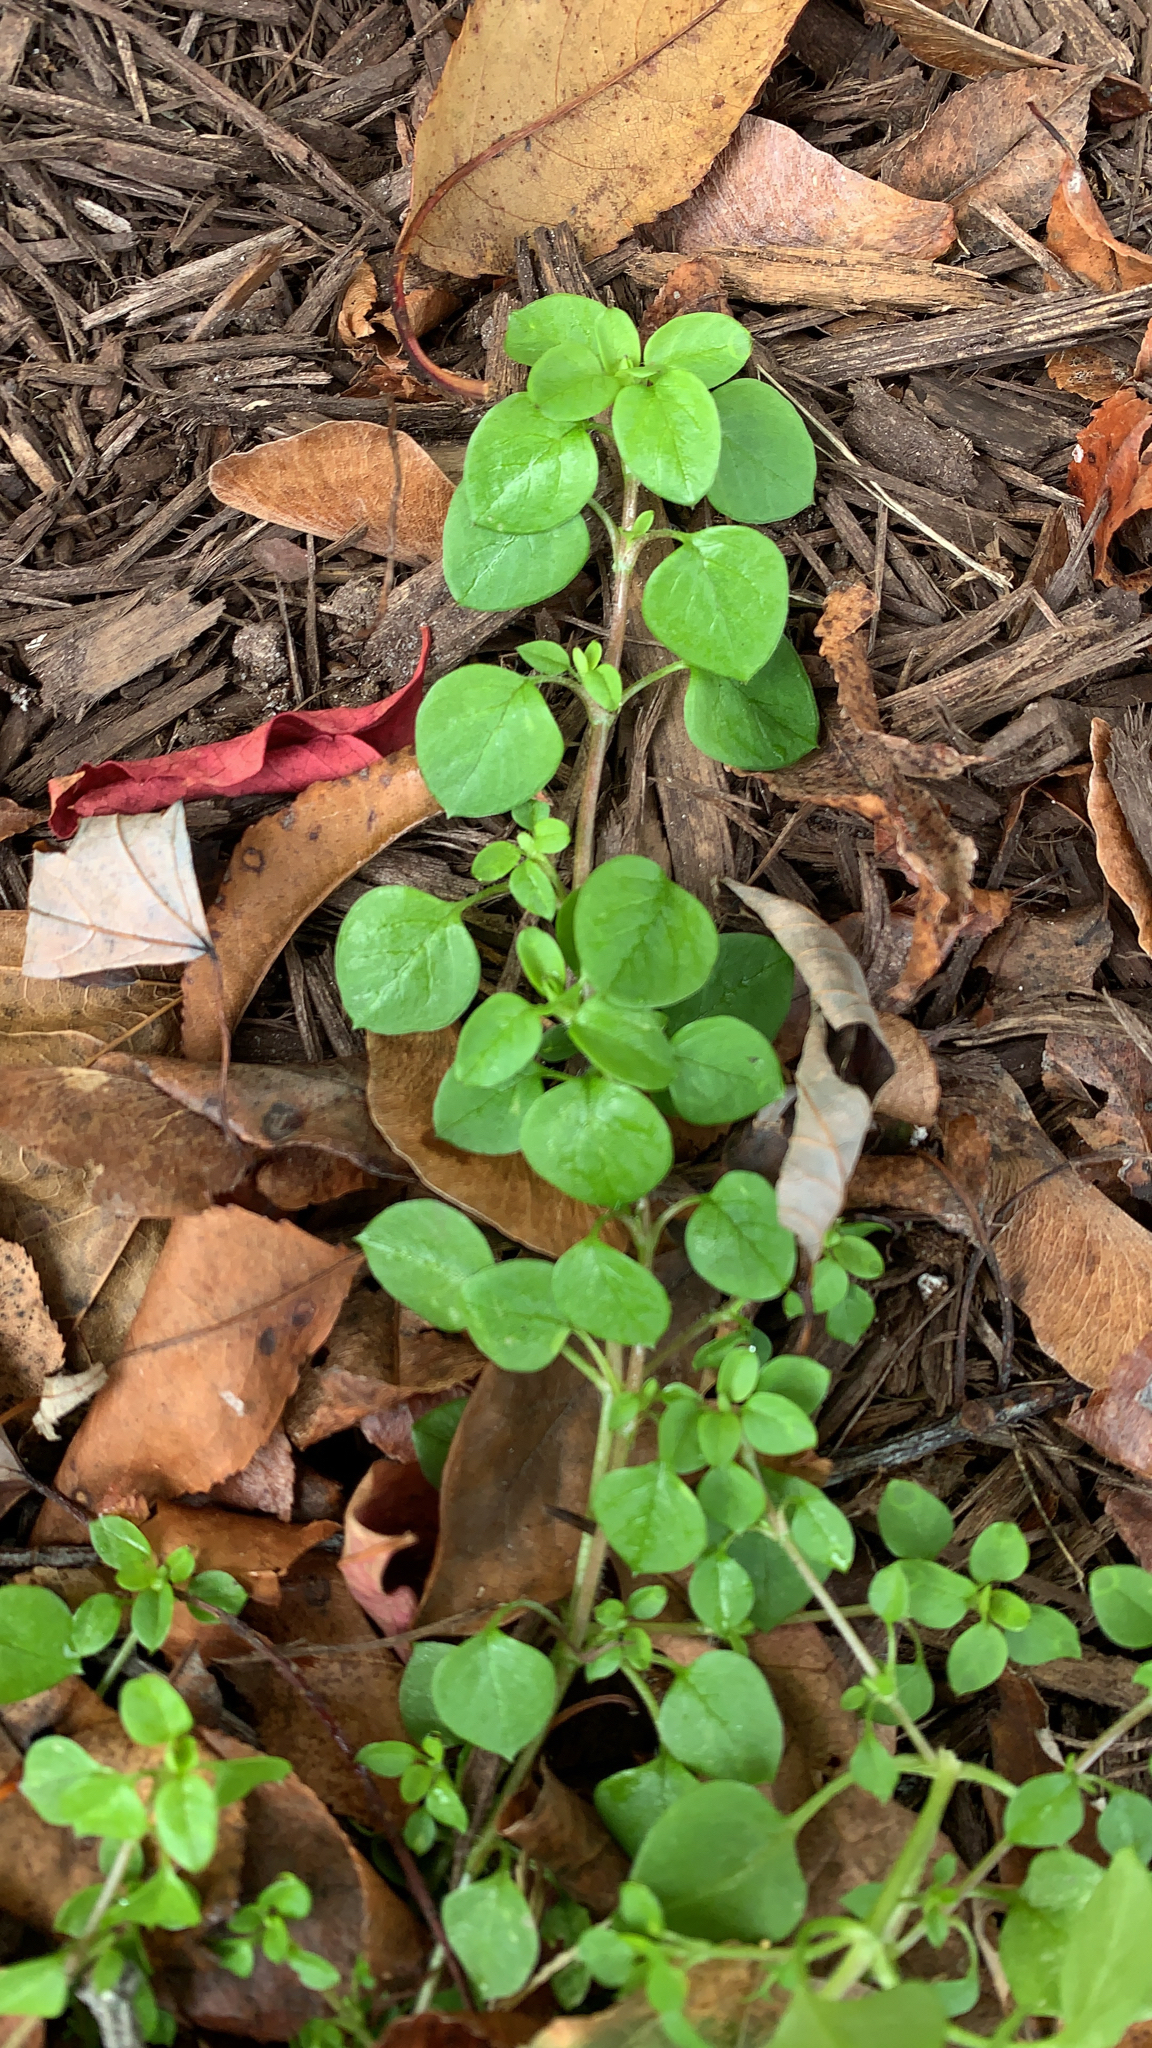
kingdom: Plantae
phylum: Tracheophyta
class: Magnoliopsida
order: Caryophyllales
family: Caryophyllaceae
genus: Stellaria
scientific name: Stellaria media
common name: Common chickweed
